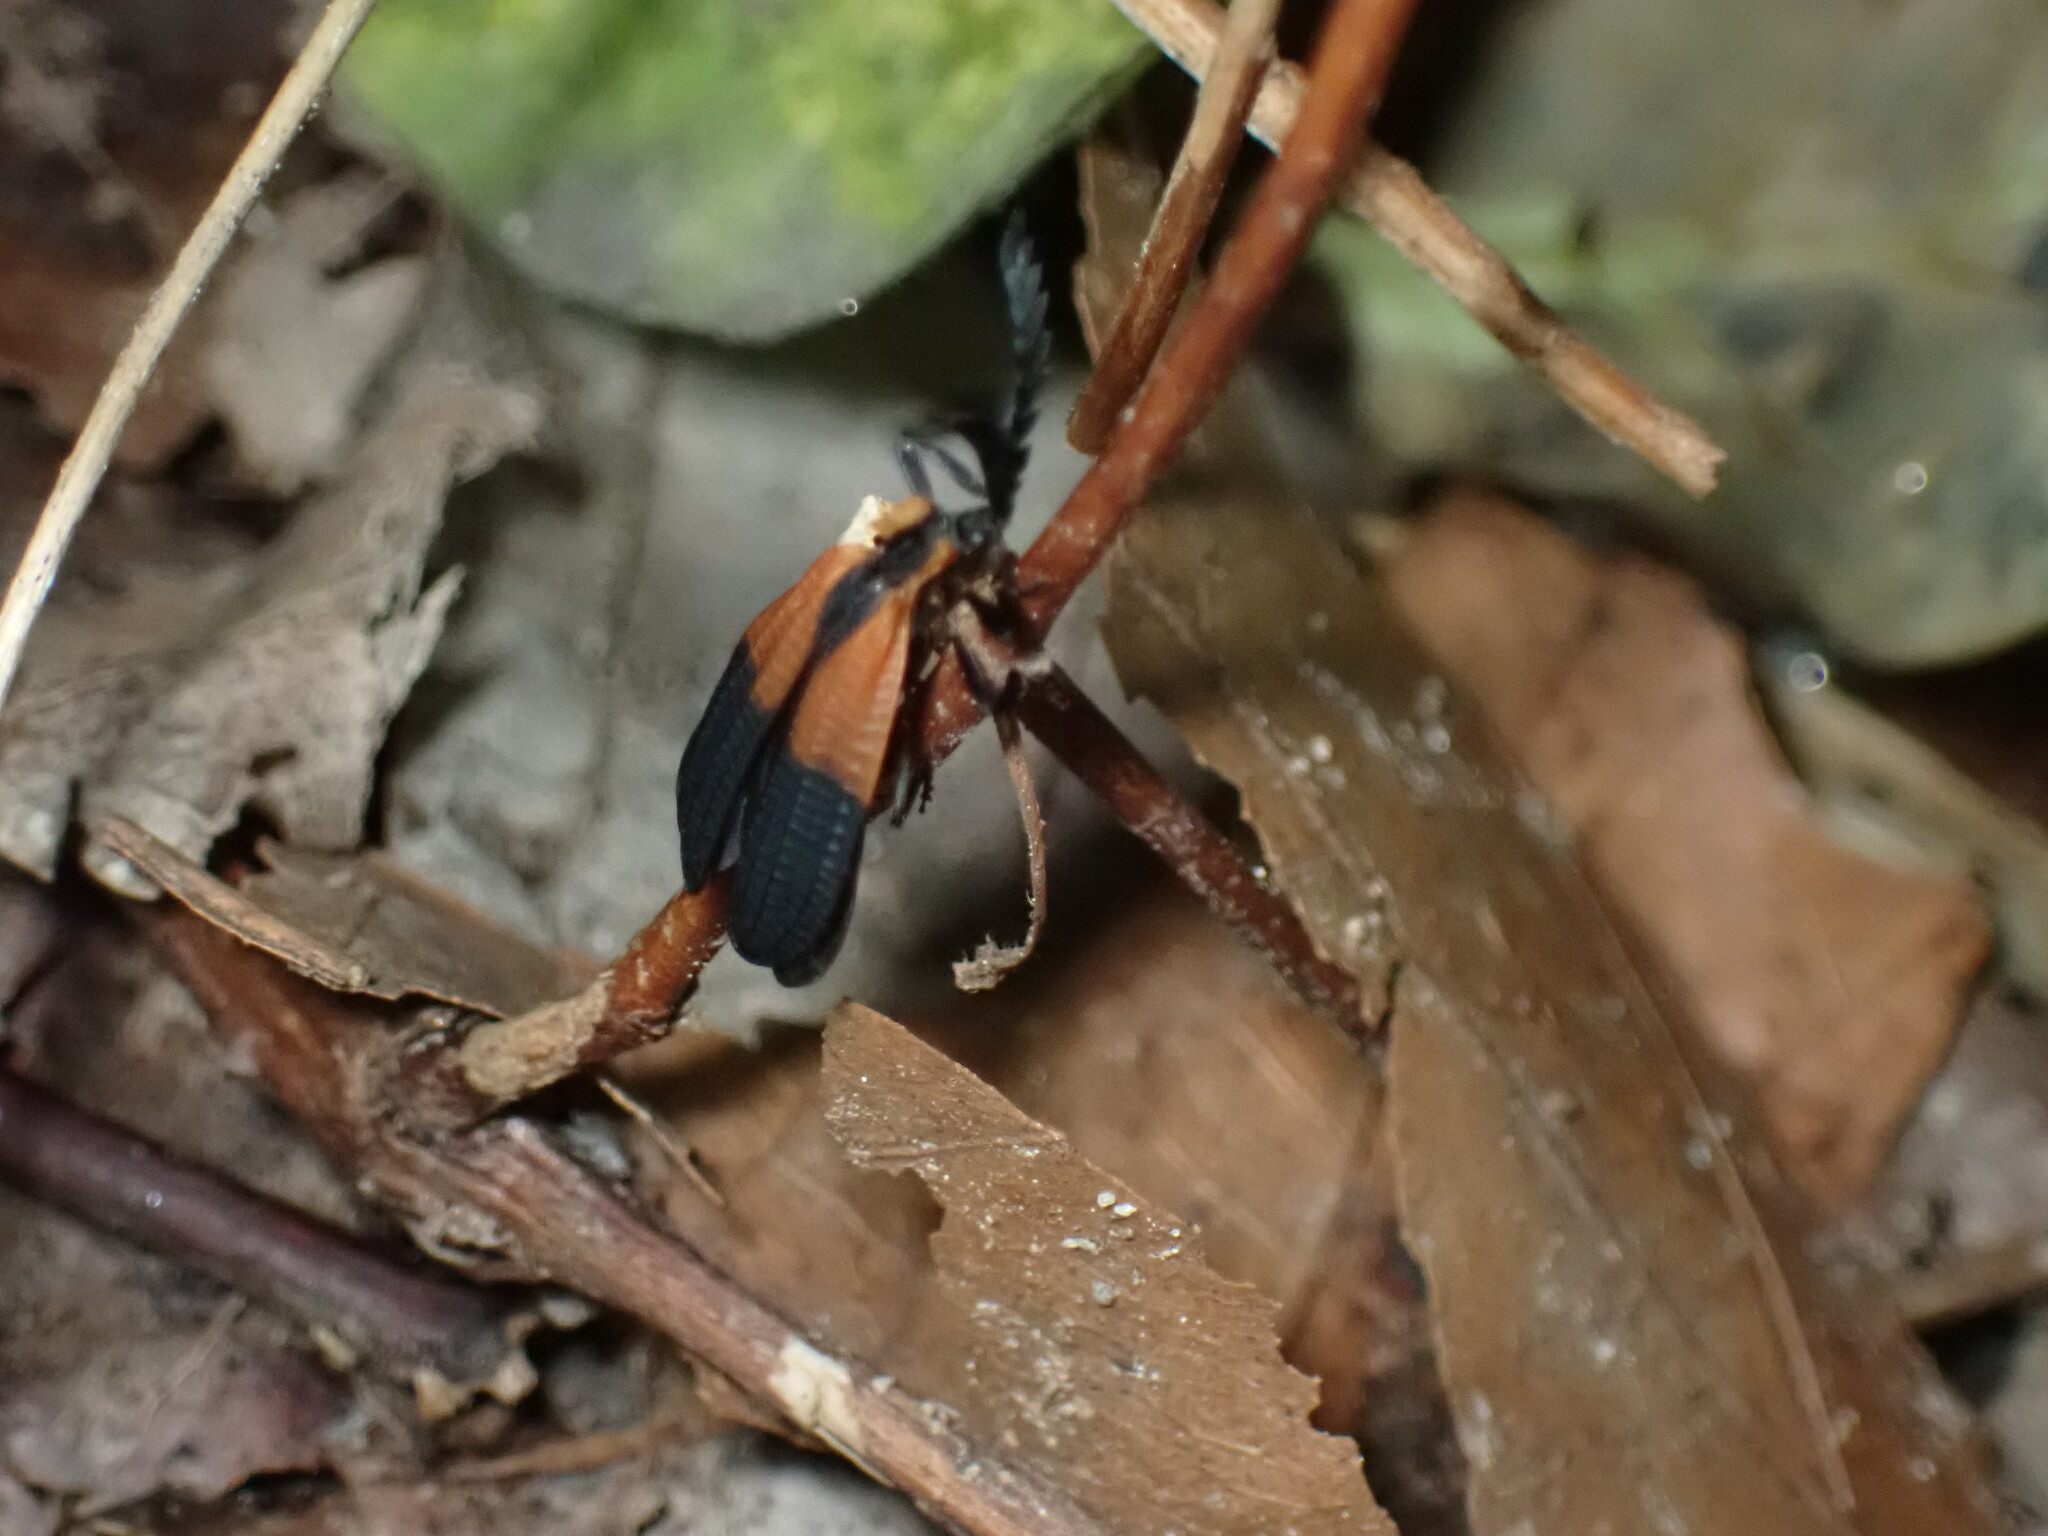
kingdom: Animalia
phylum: Arthropoda
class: Insecta
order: Coleoptera
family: Lycidae
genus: Caenia
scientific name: Caenia dimidiata
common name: Terminal net-winged beetle
